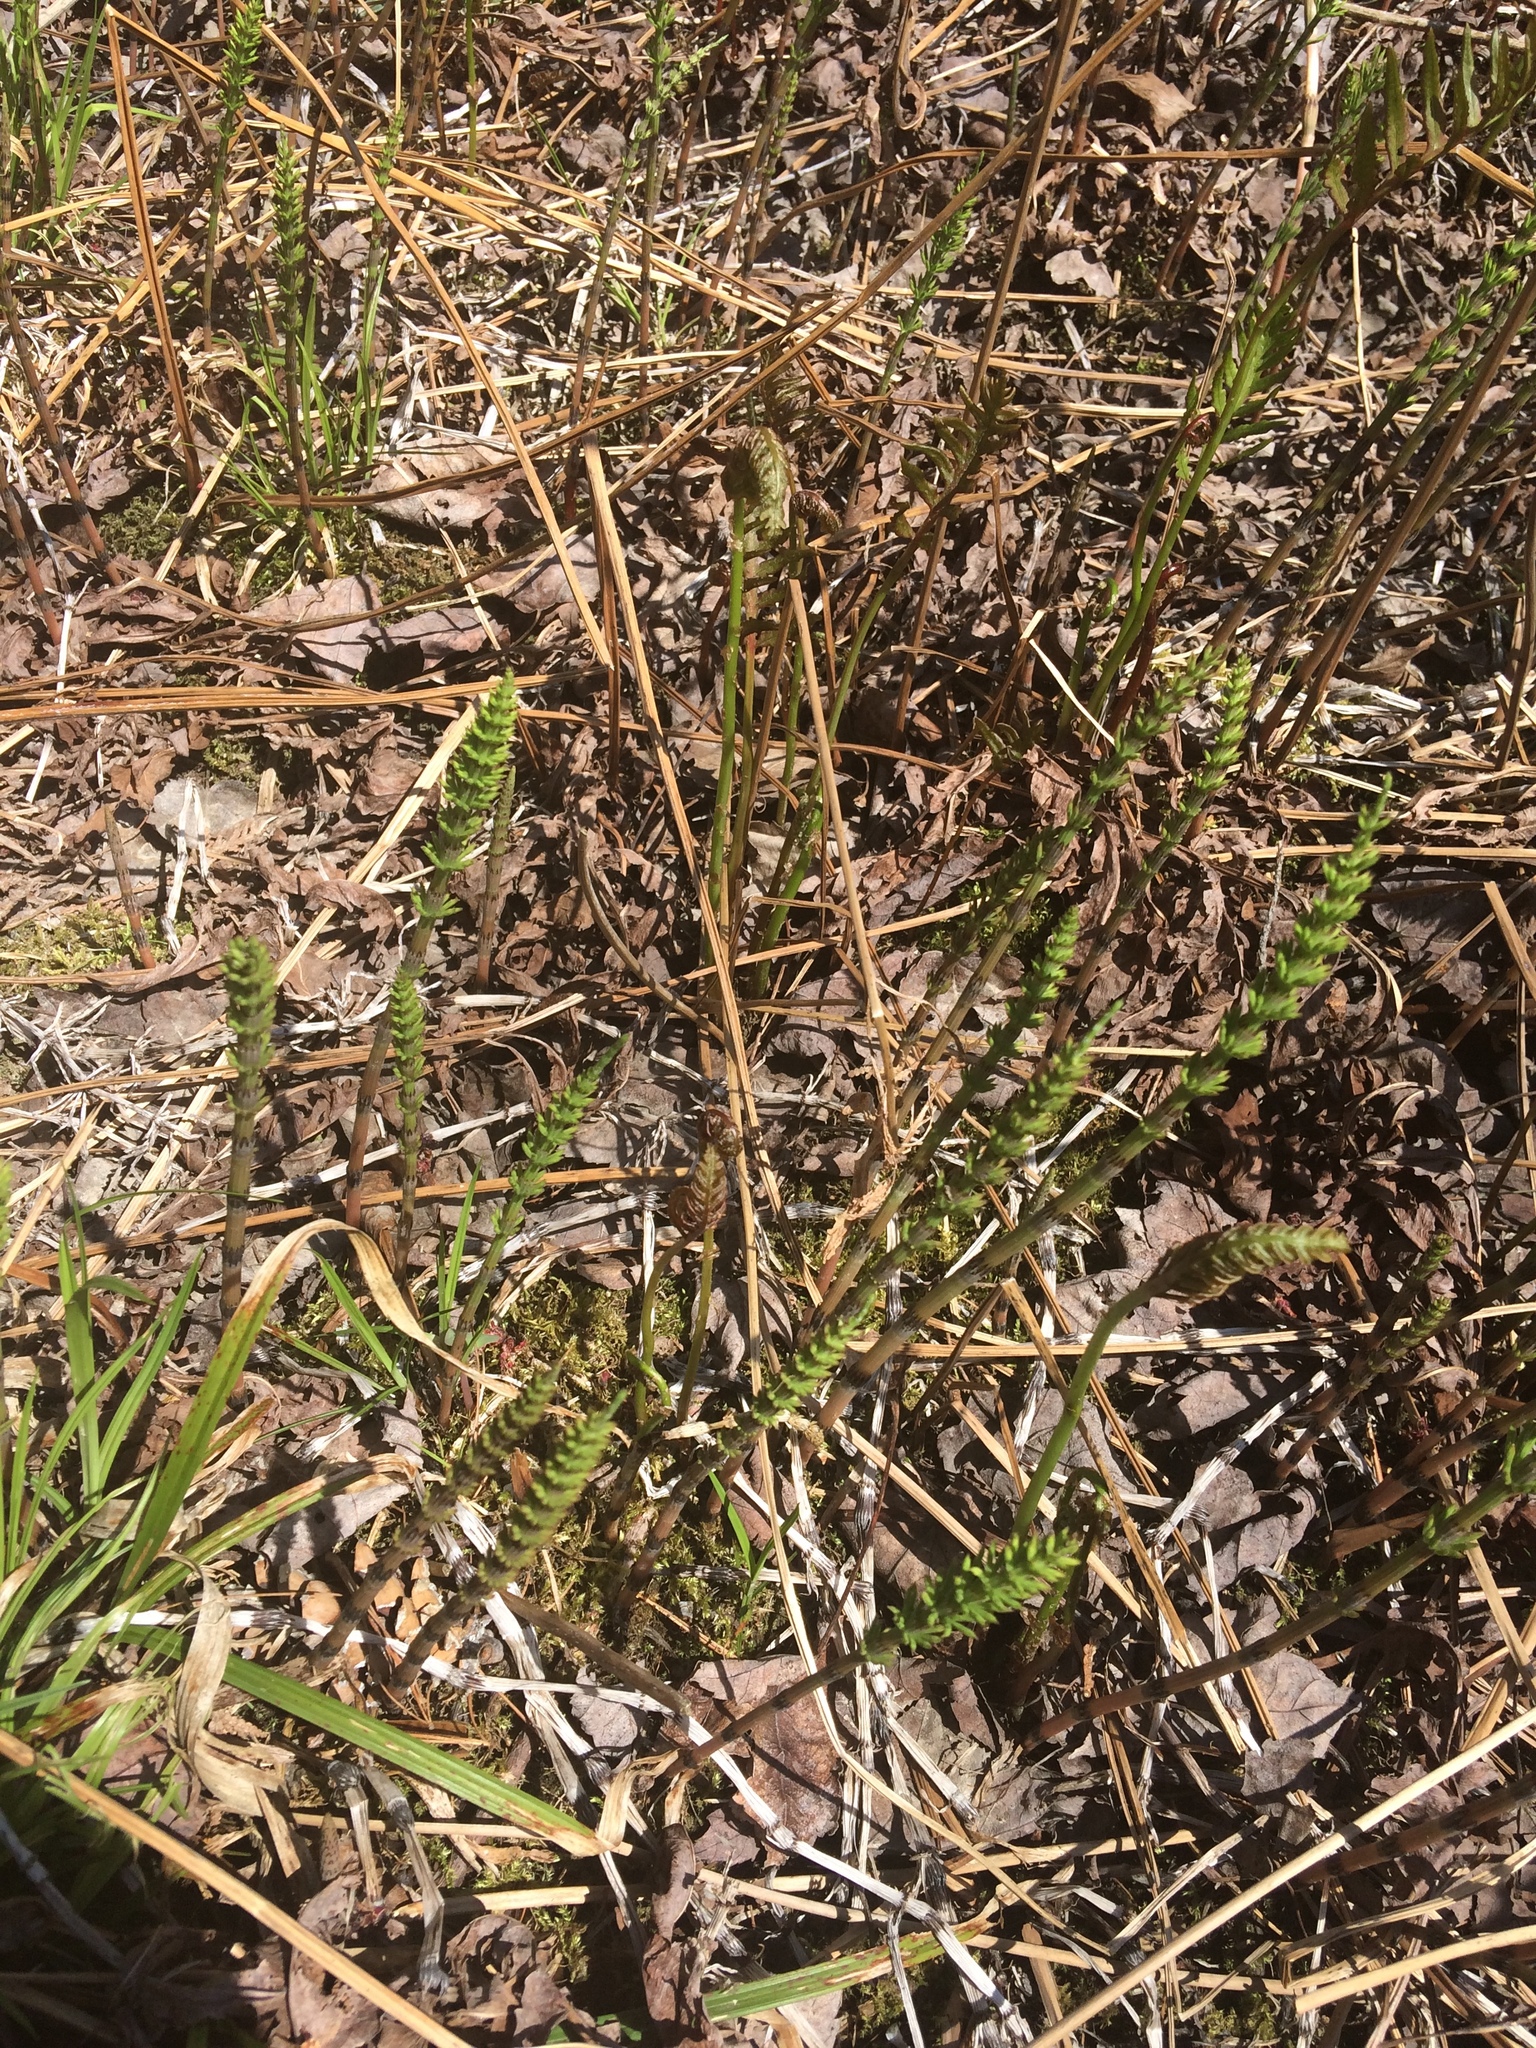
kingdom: Plantae
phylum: Tracheophyta
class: Polypodiopsida
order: Equisetales
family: Equisetaceae
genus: Equisetum
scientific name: Equisetum arvense
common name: Field horsetail
